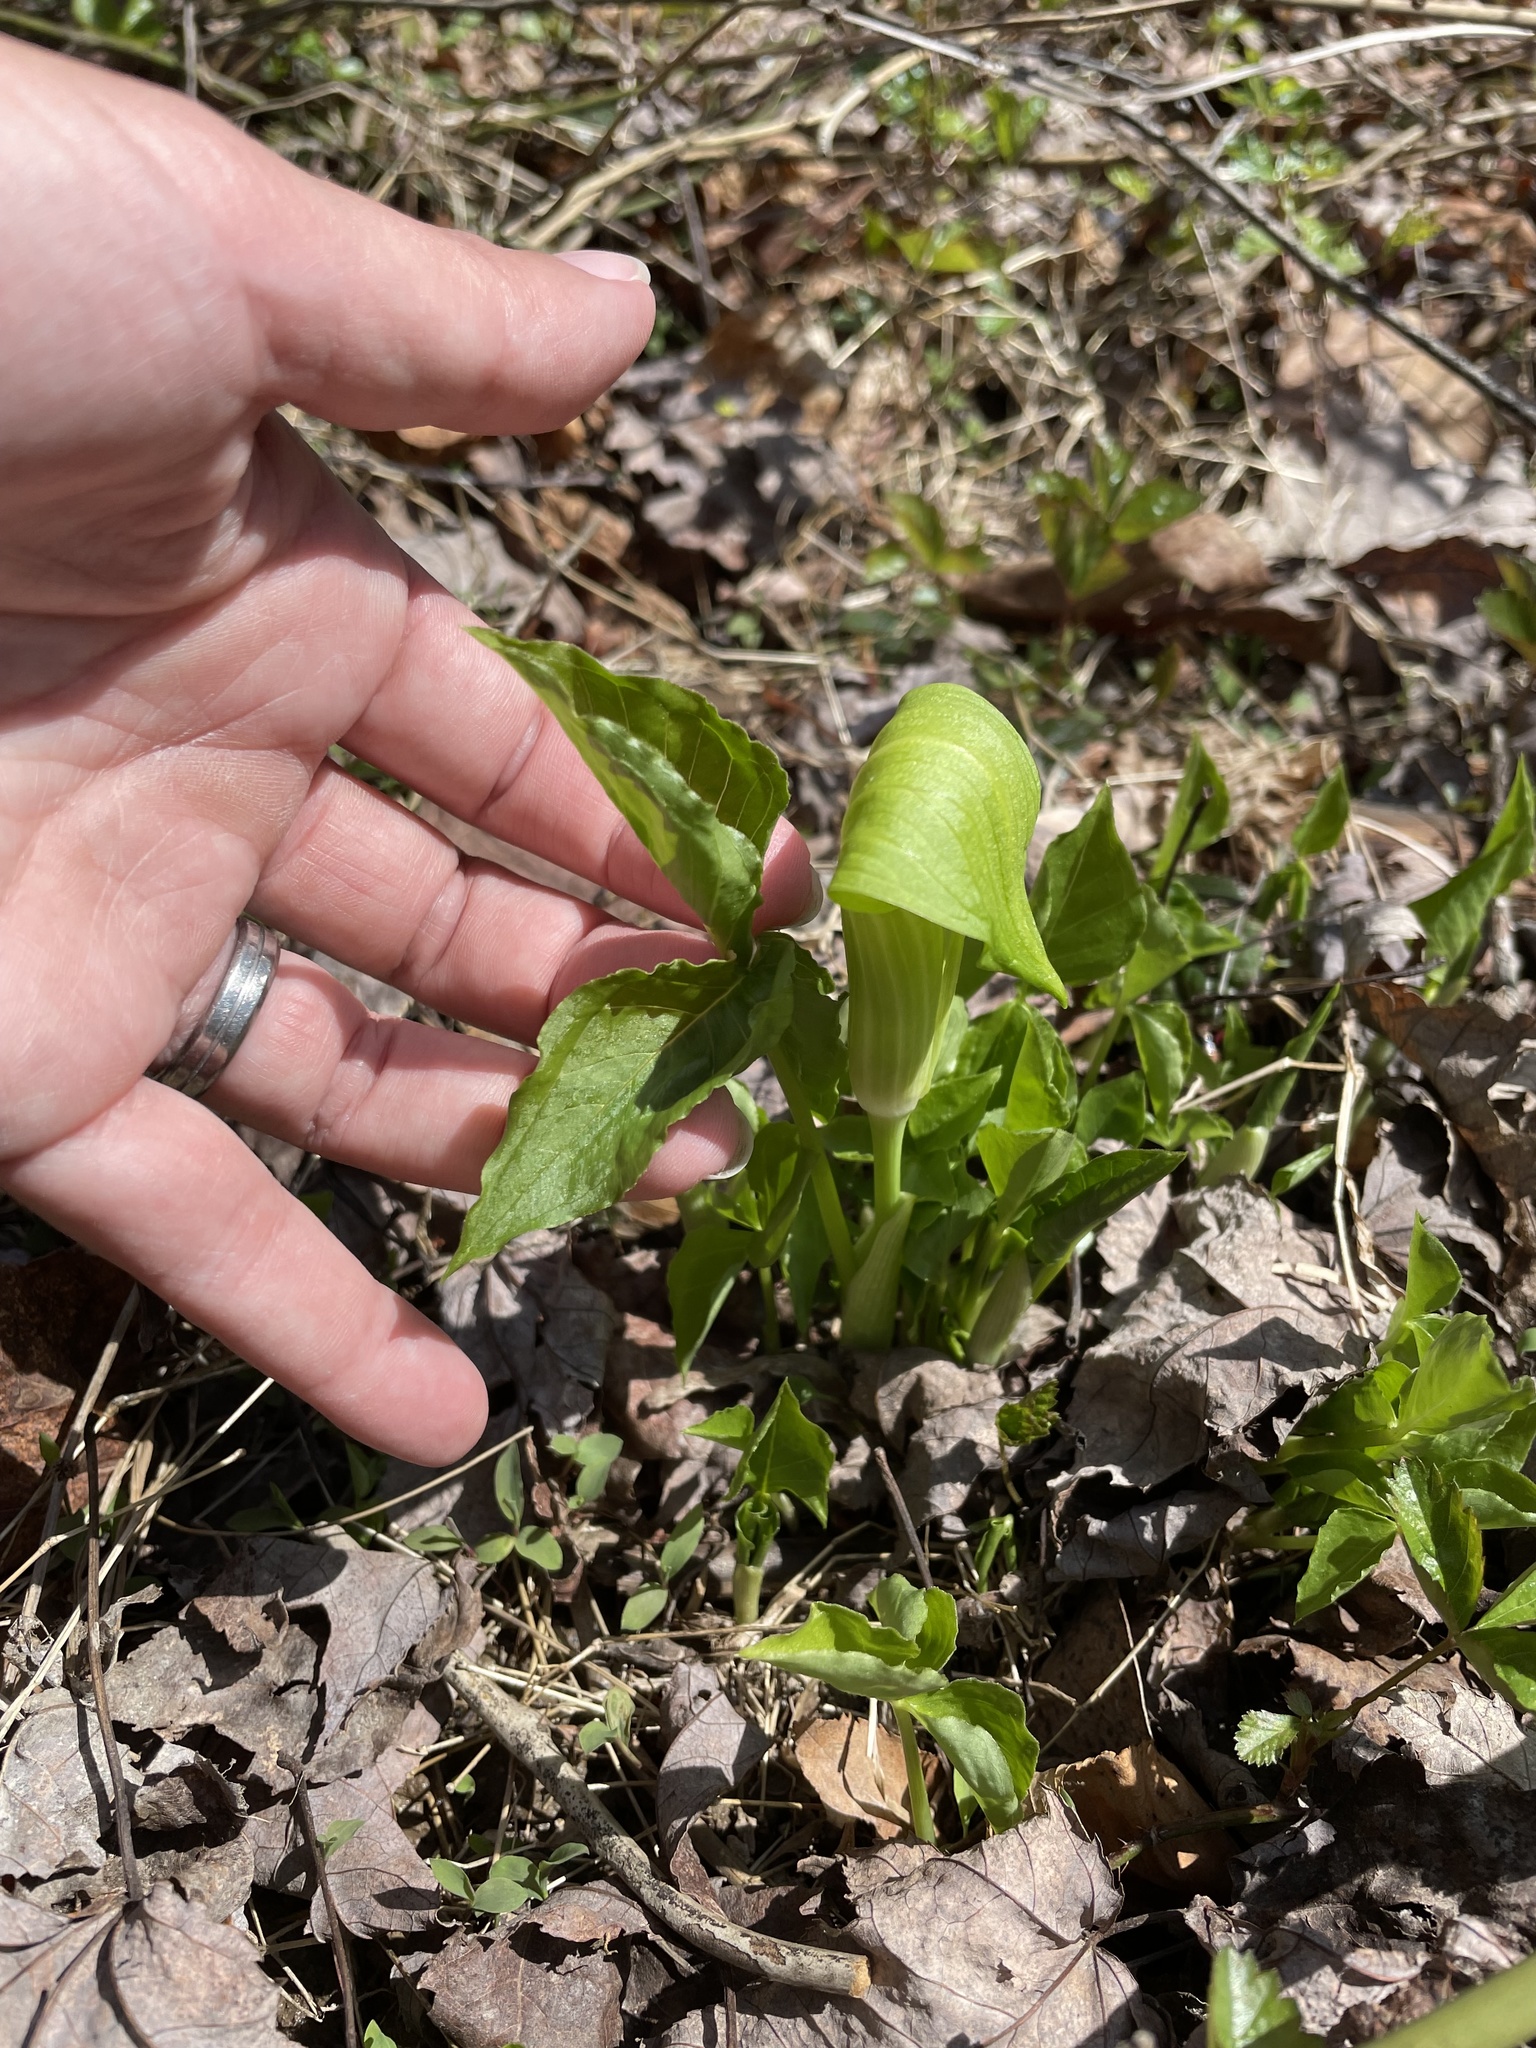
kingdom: Plantae
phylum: Tracheophyta
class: Liliopsida
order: Alismatales
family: Araceae
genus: Arisaema
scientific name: Arisaema triphyllum
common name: Jack-in-the-pulpit
